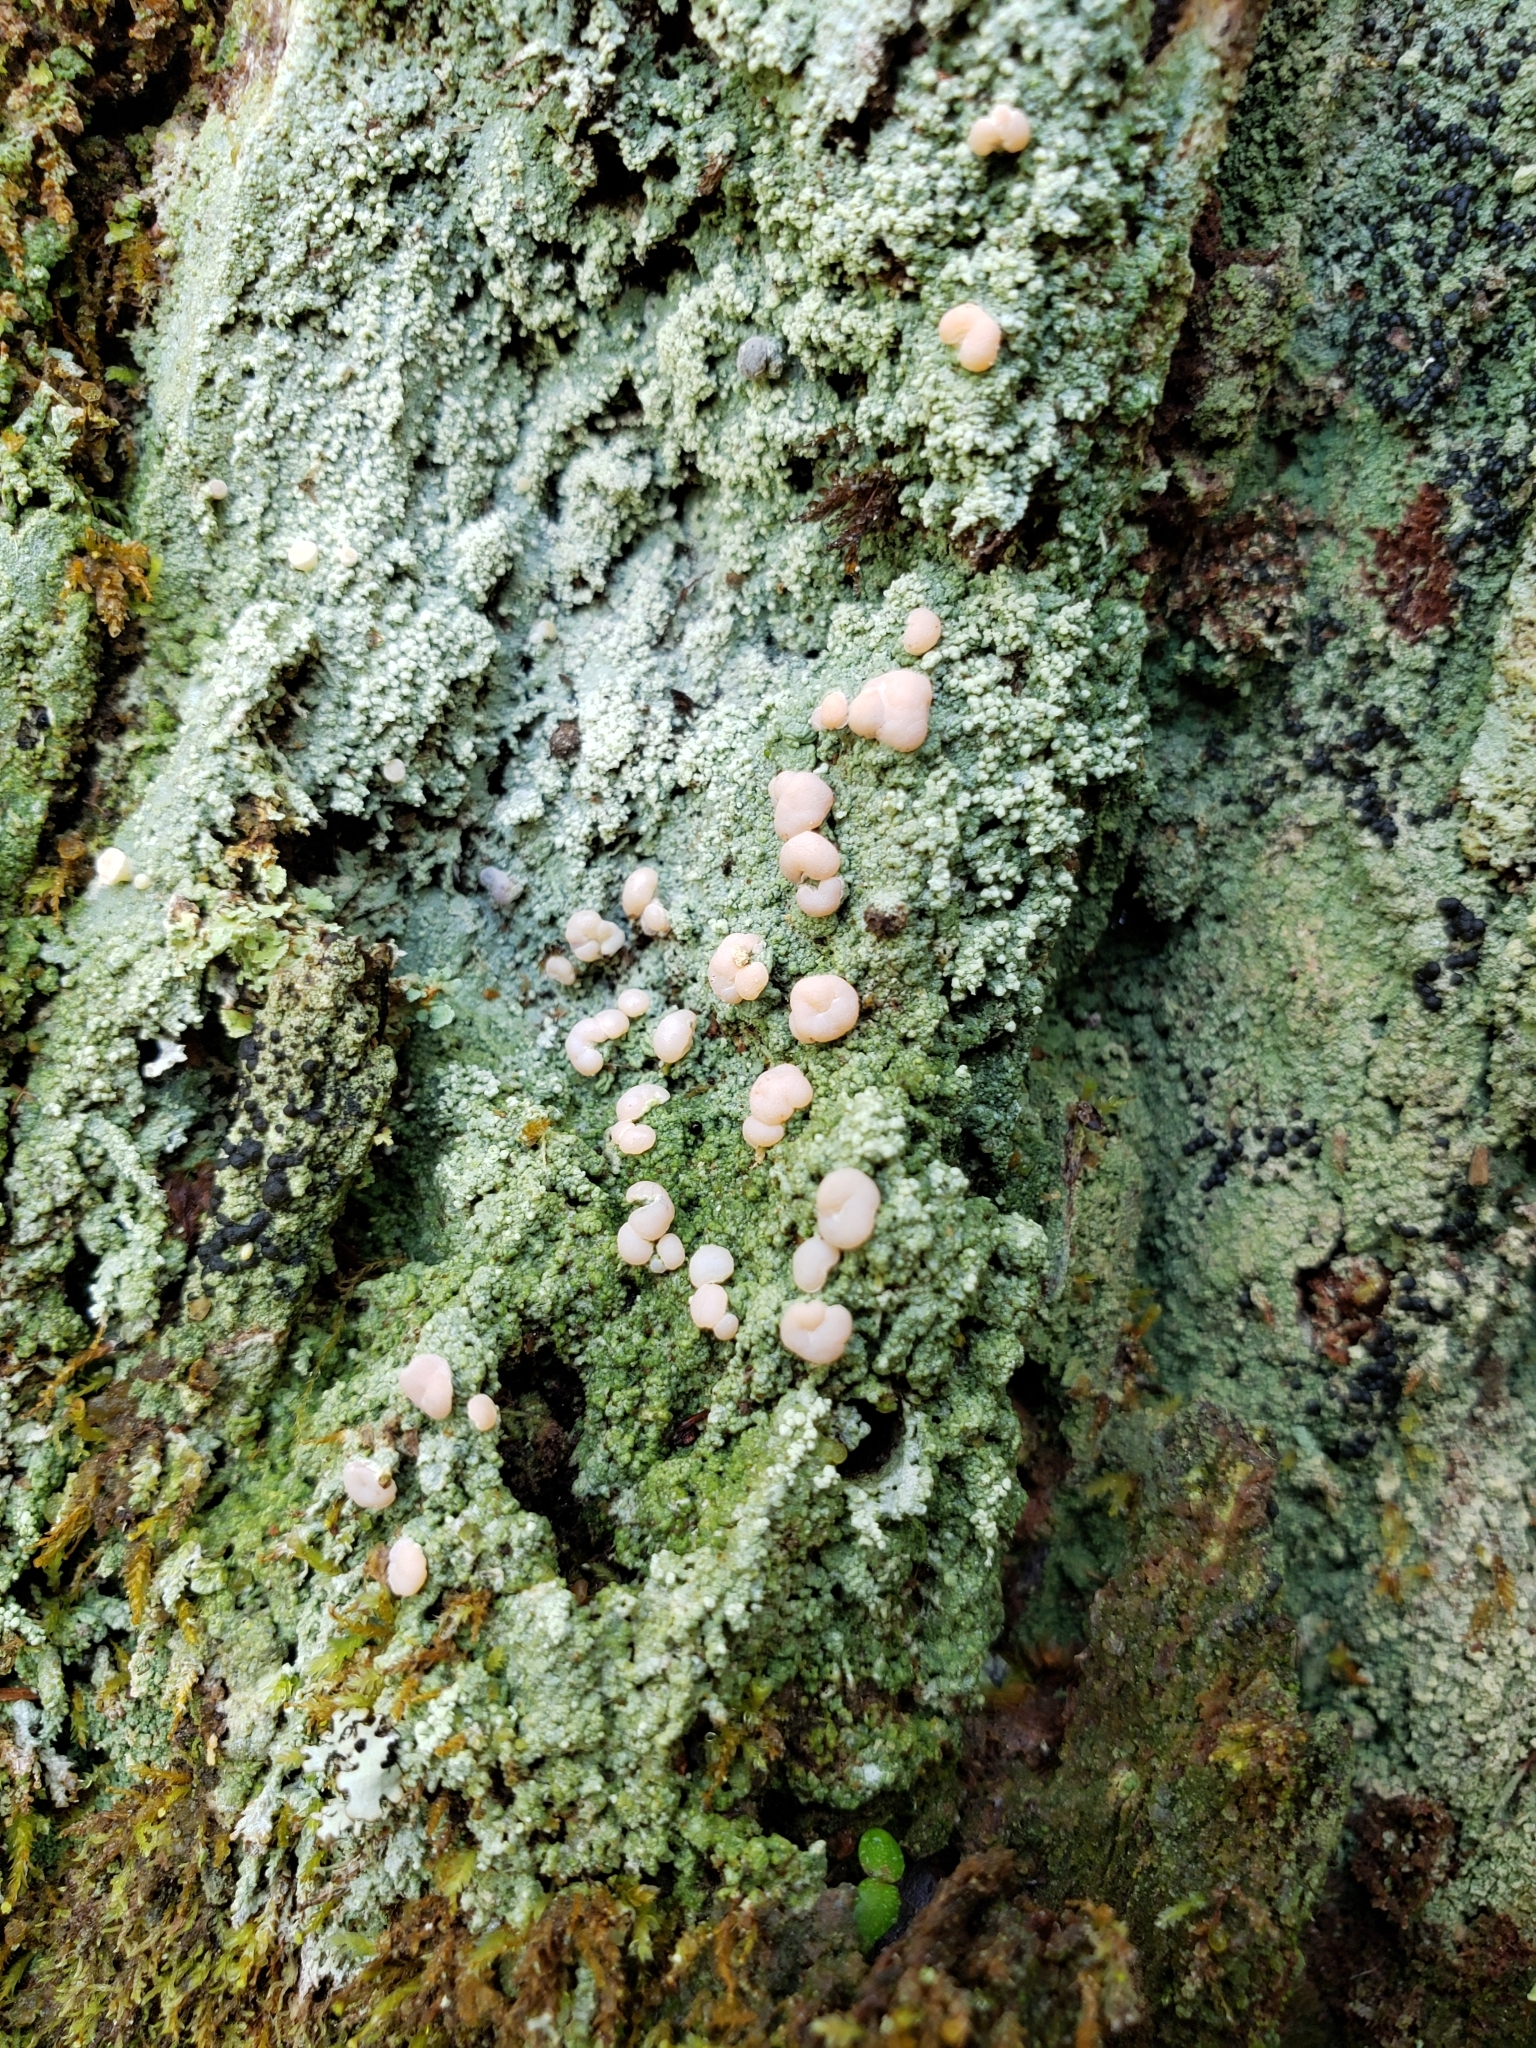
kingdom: Fungi
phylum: Ascomycota
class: Lecanoromycetes
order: Pertusariales
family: Icmadophilaceae
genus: Icmadophila
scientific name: Icmadophila ericetorum
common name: Candy lichen
